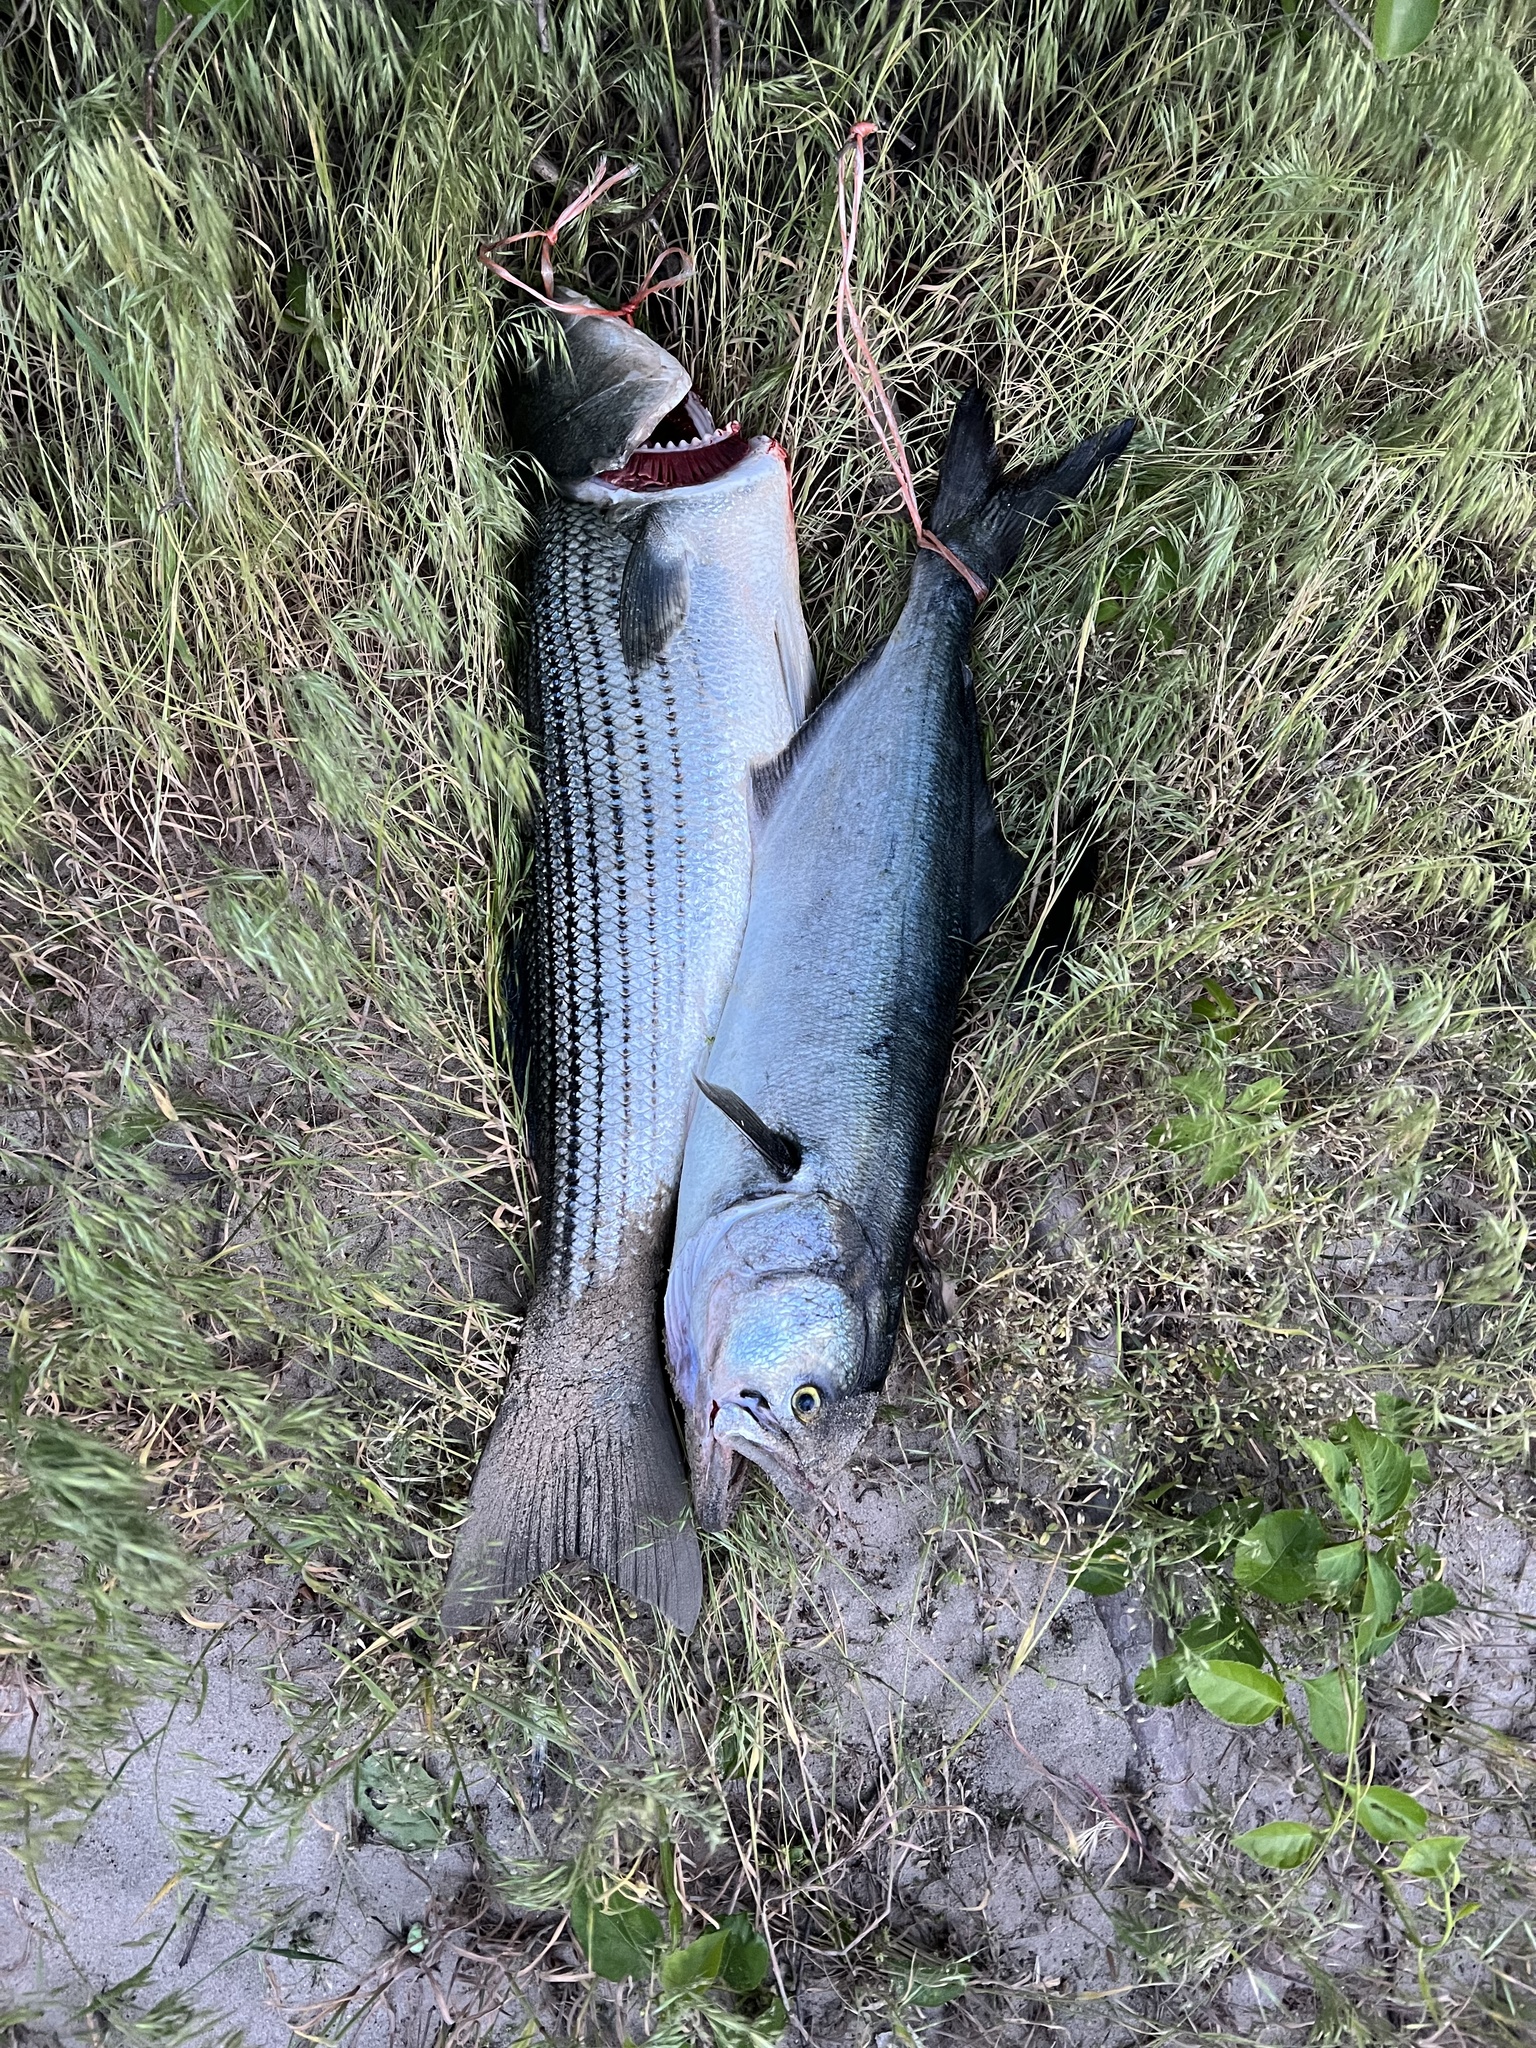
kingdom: Animalia
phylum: Chordata
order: Perciformes
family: Pomatomidae
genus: Pomatomus
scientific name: Pomatomus saltatrix
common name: Bluefish
